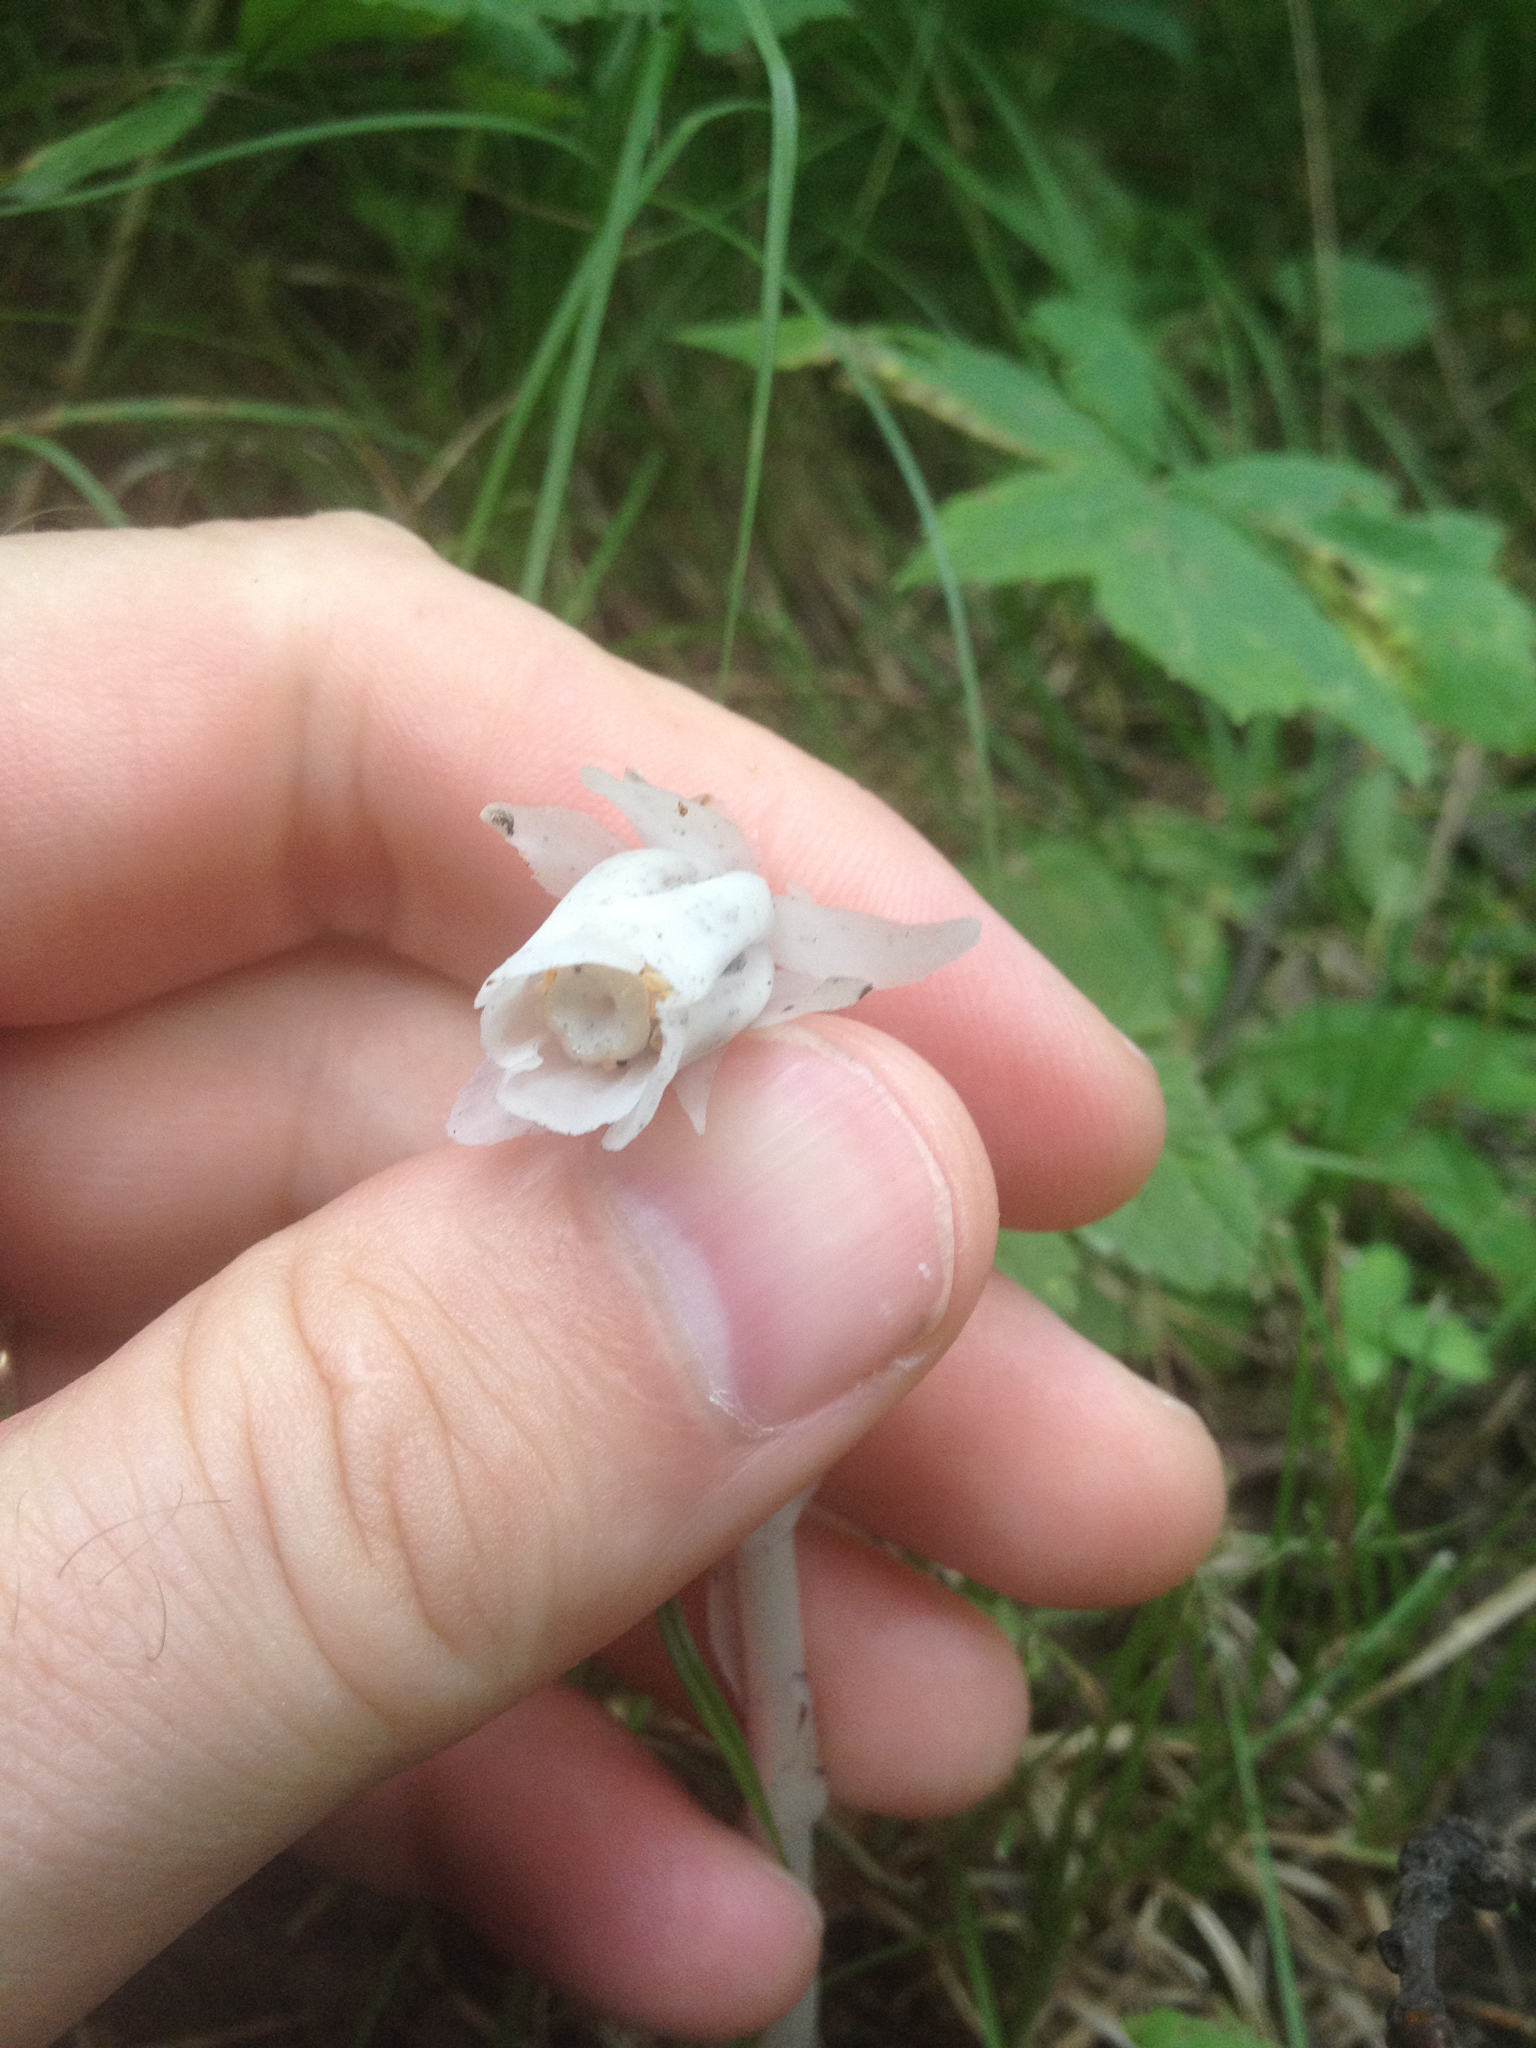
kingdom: Plantae
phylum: Tracheophyta
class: Magnoliopsida
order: Ericales
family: Ericaceae
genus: Monotropa
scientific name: Monotropa uniflora
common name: Convulsion root
